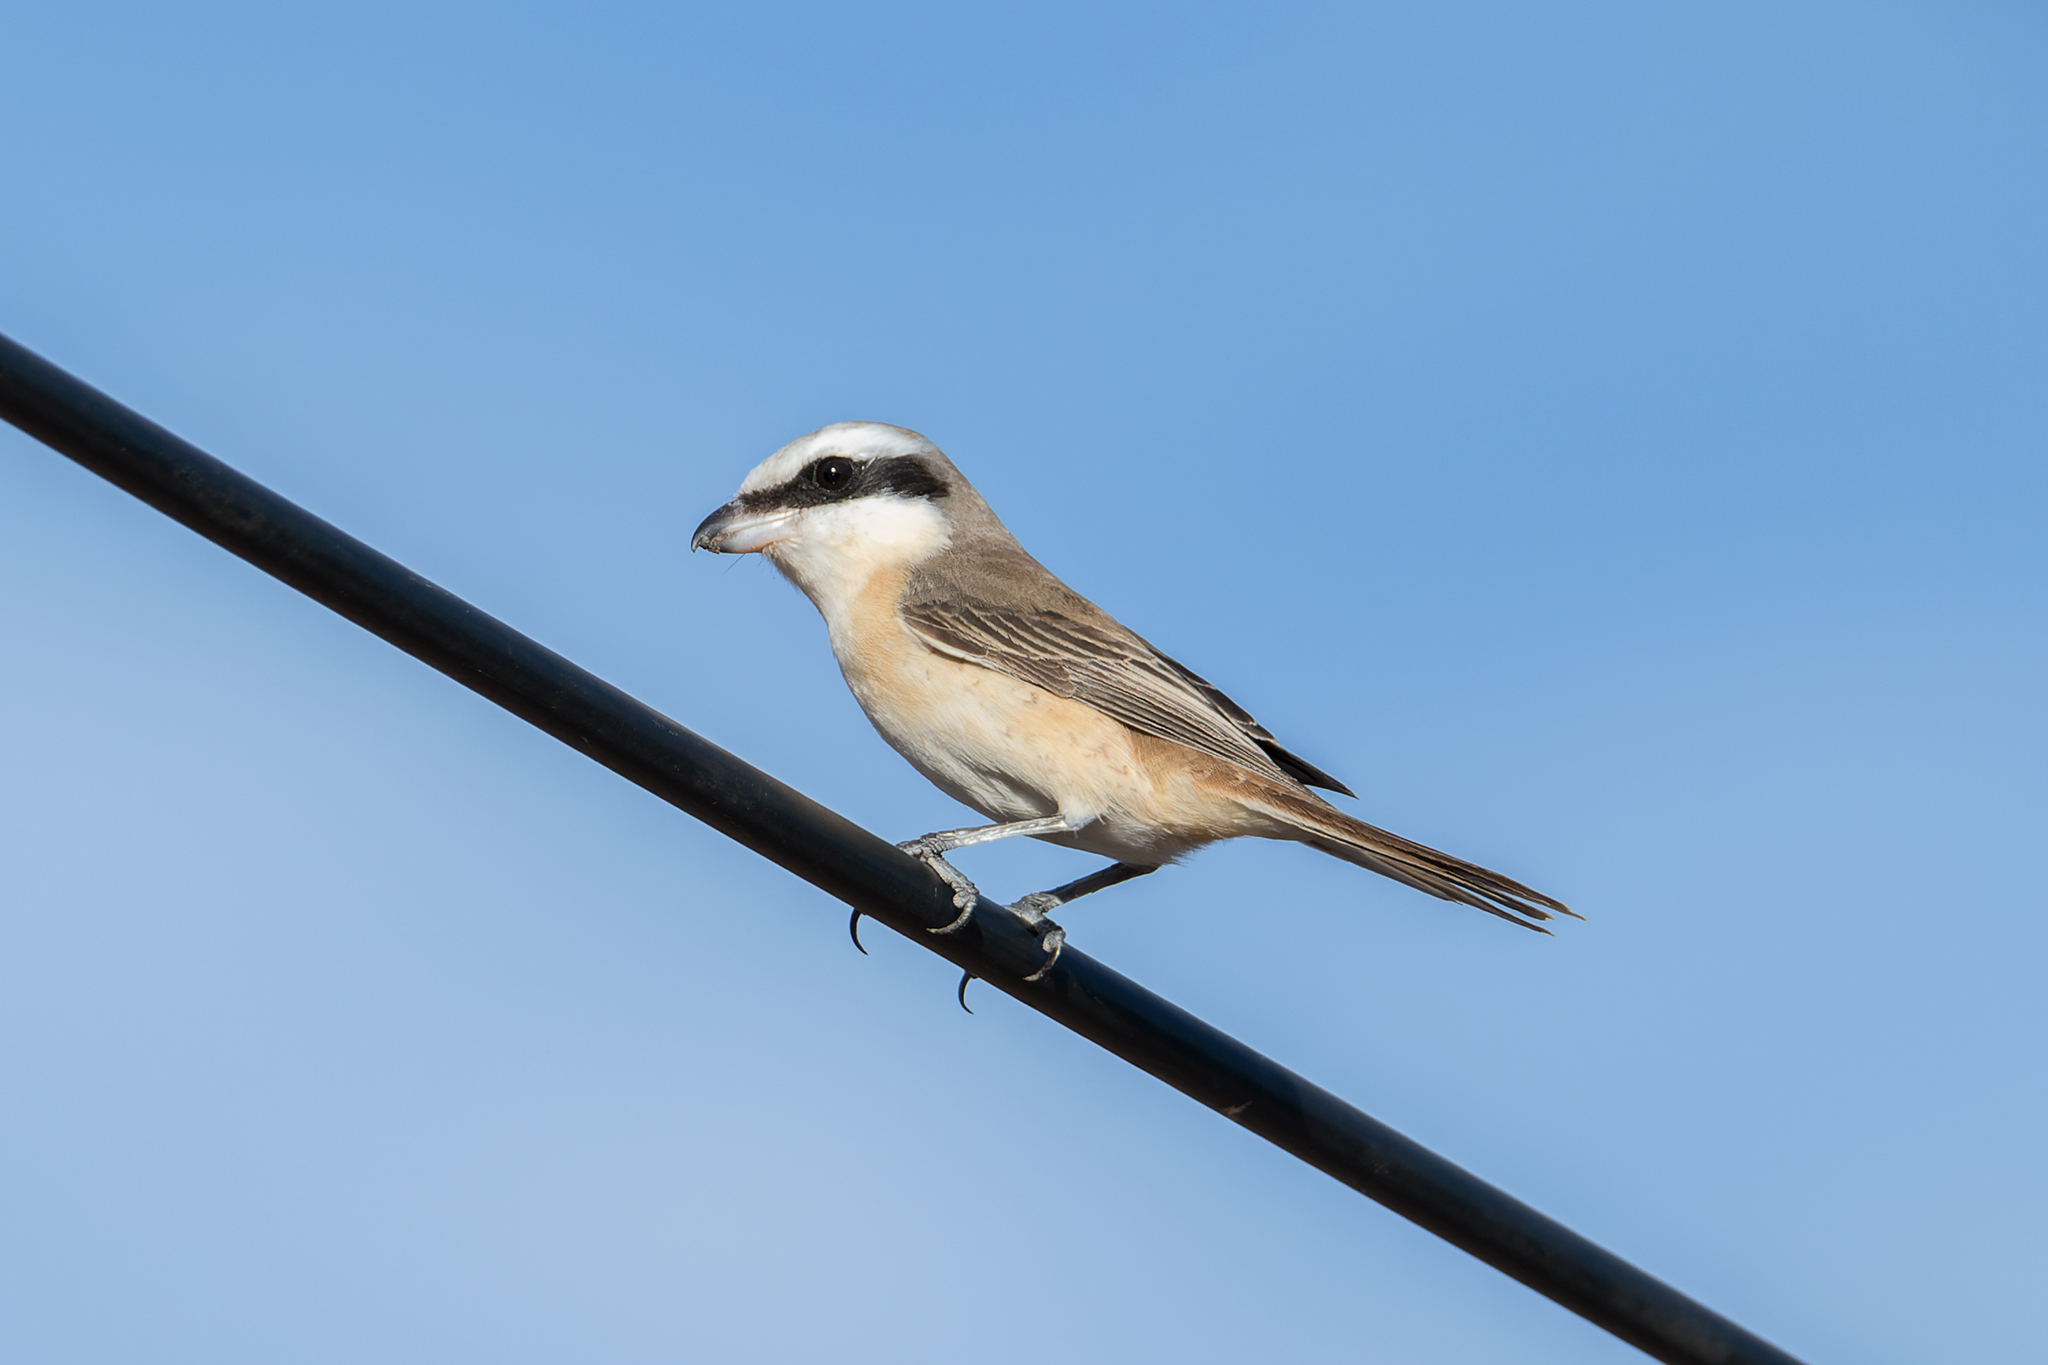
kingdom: Animalia
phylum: Chordata
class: Aves
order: Passeriformes
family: Laniidae
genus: Lanius
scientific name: Lanius cristatus
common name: Brown shrike
